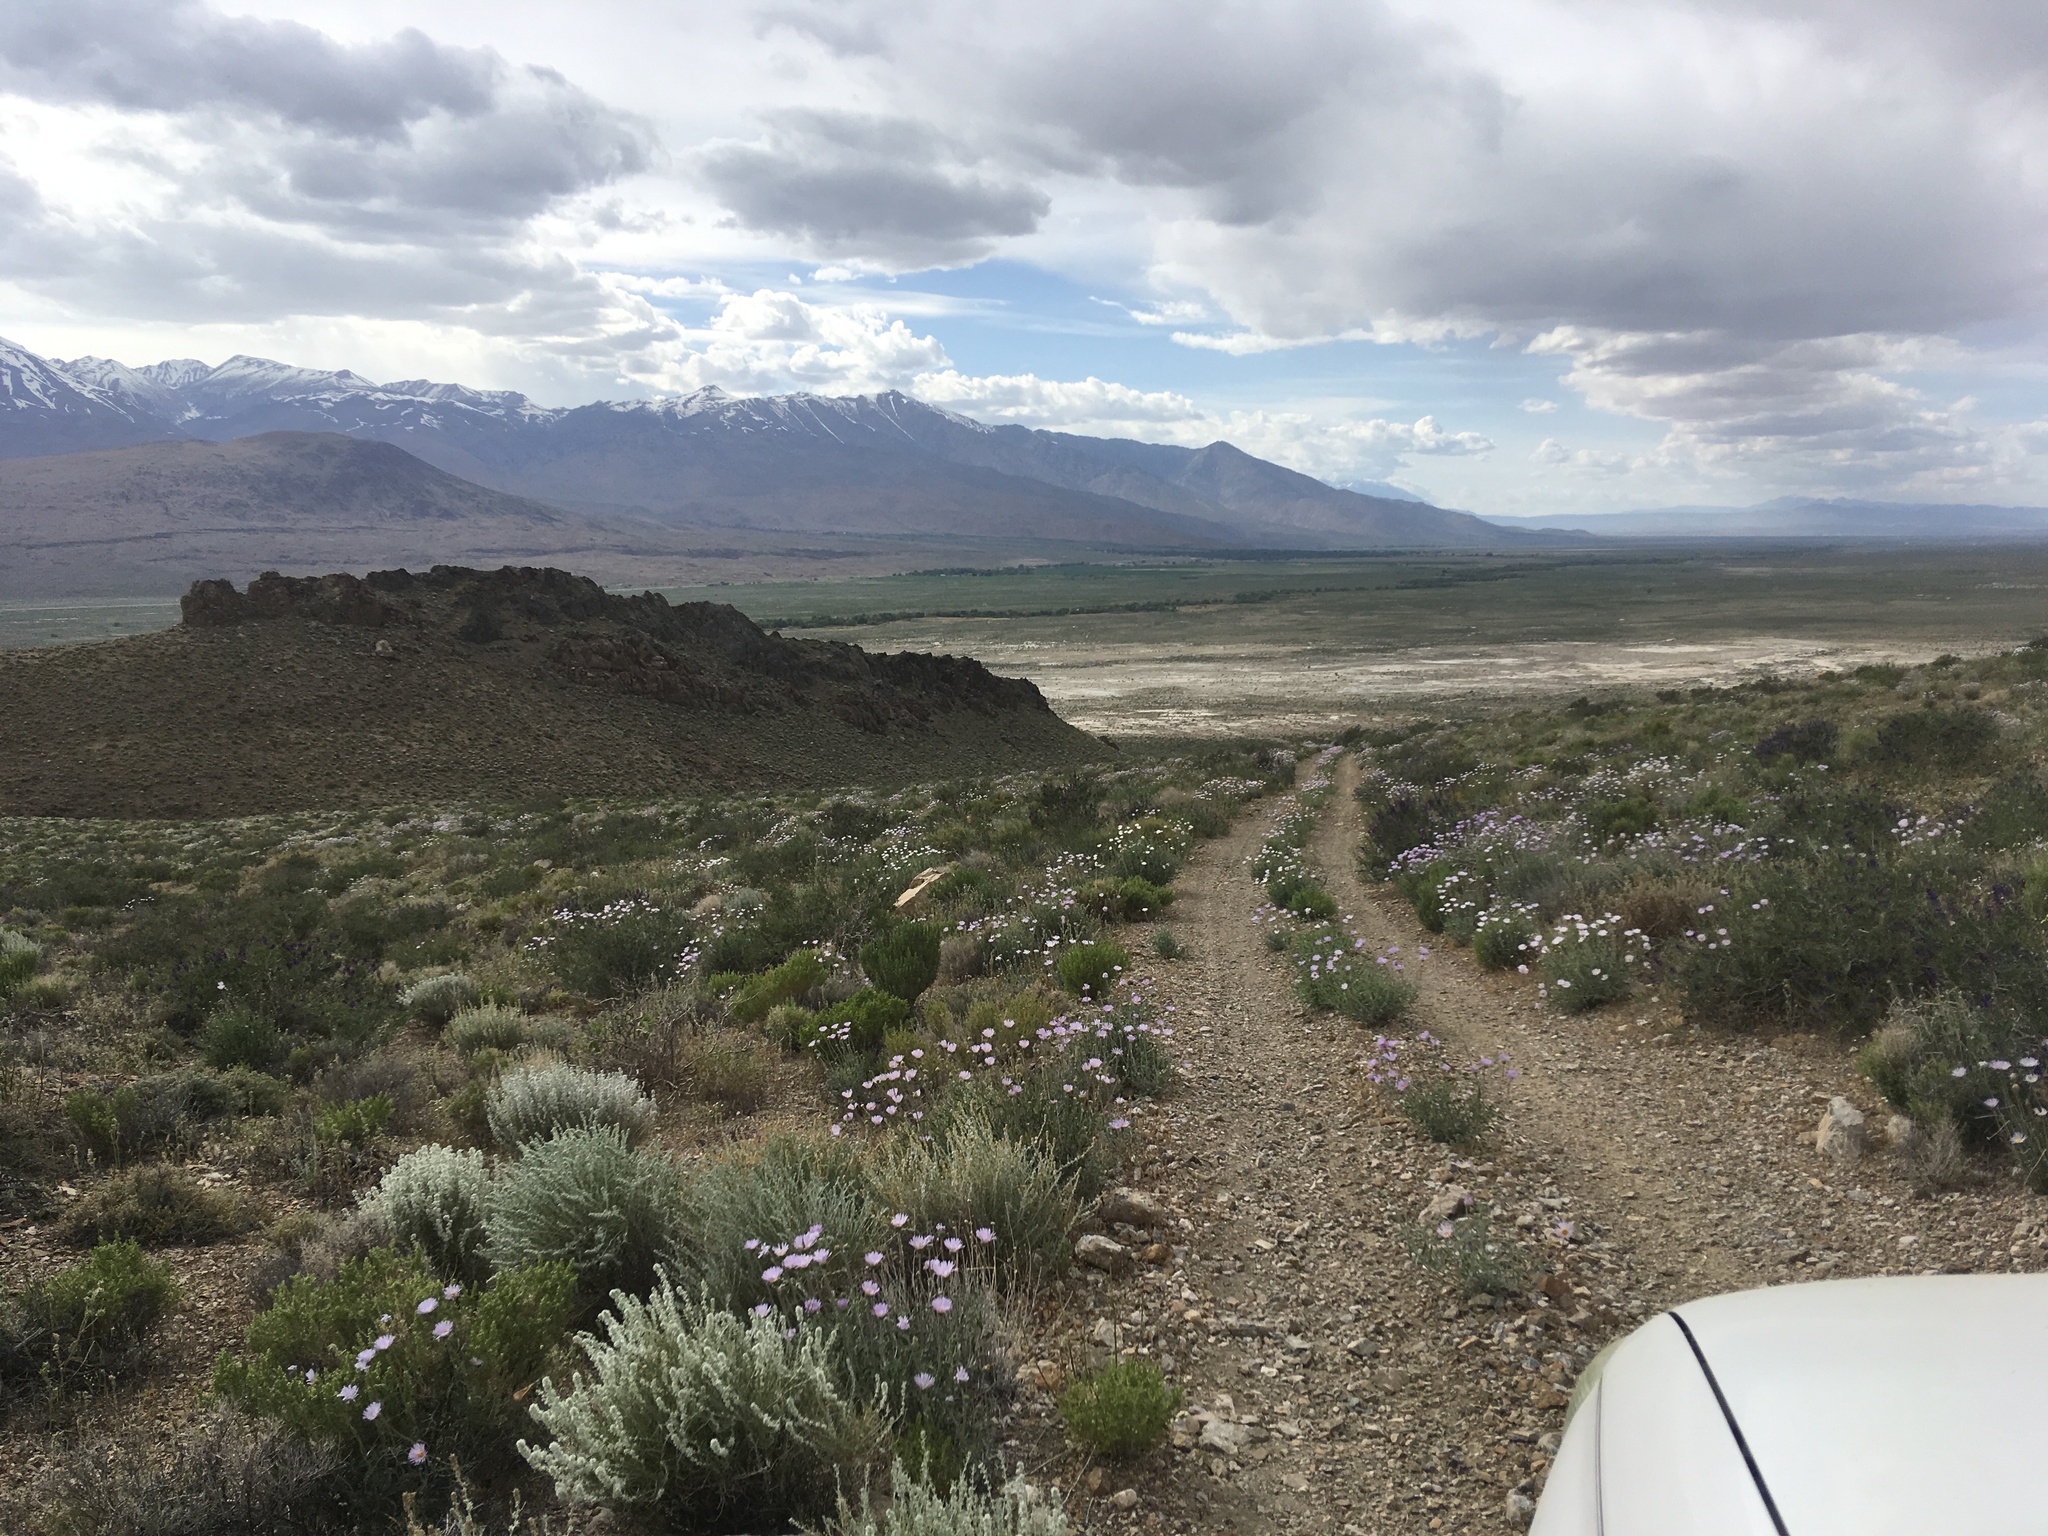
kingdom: Plantae
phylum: Tracheophyta
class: Magnoliopsida
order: Asterales
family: Asteraceae
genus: Xylorhiza
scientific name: Xylorhiza tortifolia
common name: Hurt-leaf woody-aster
